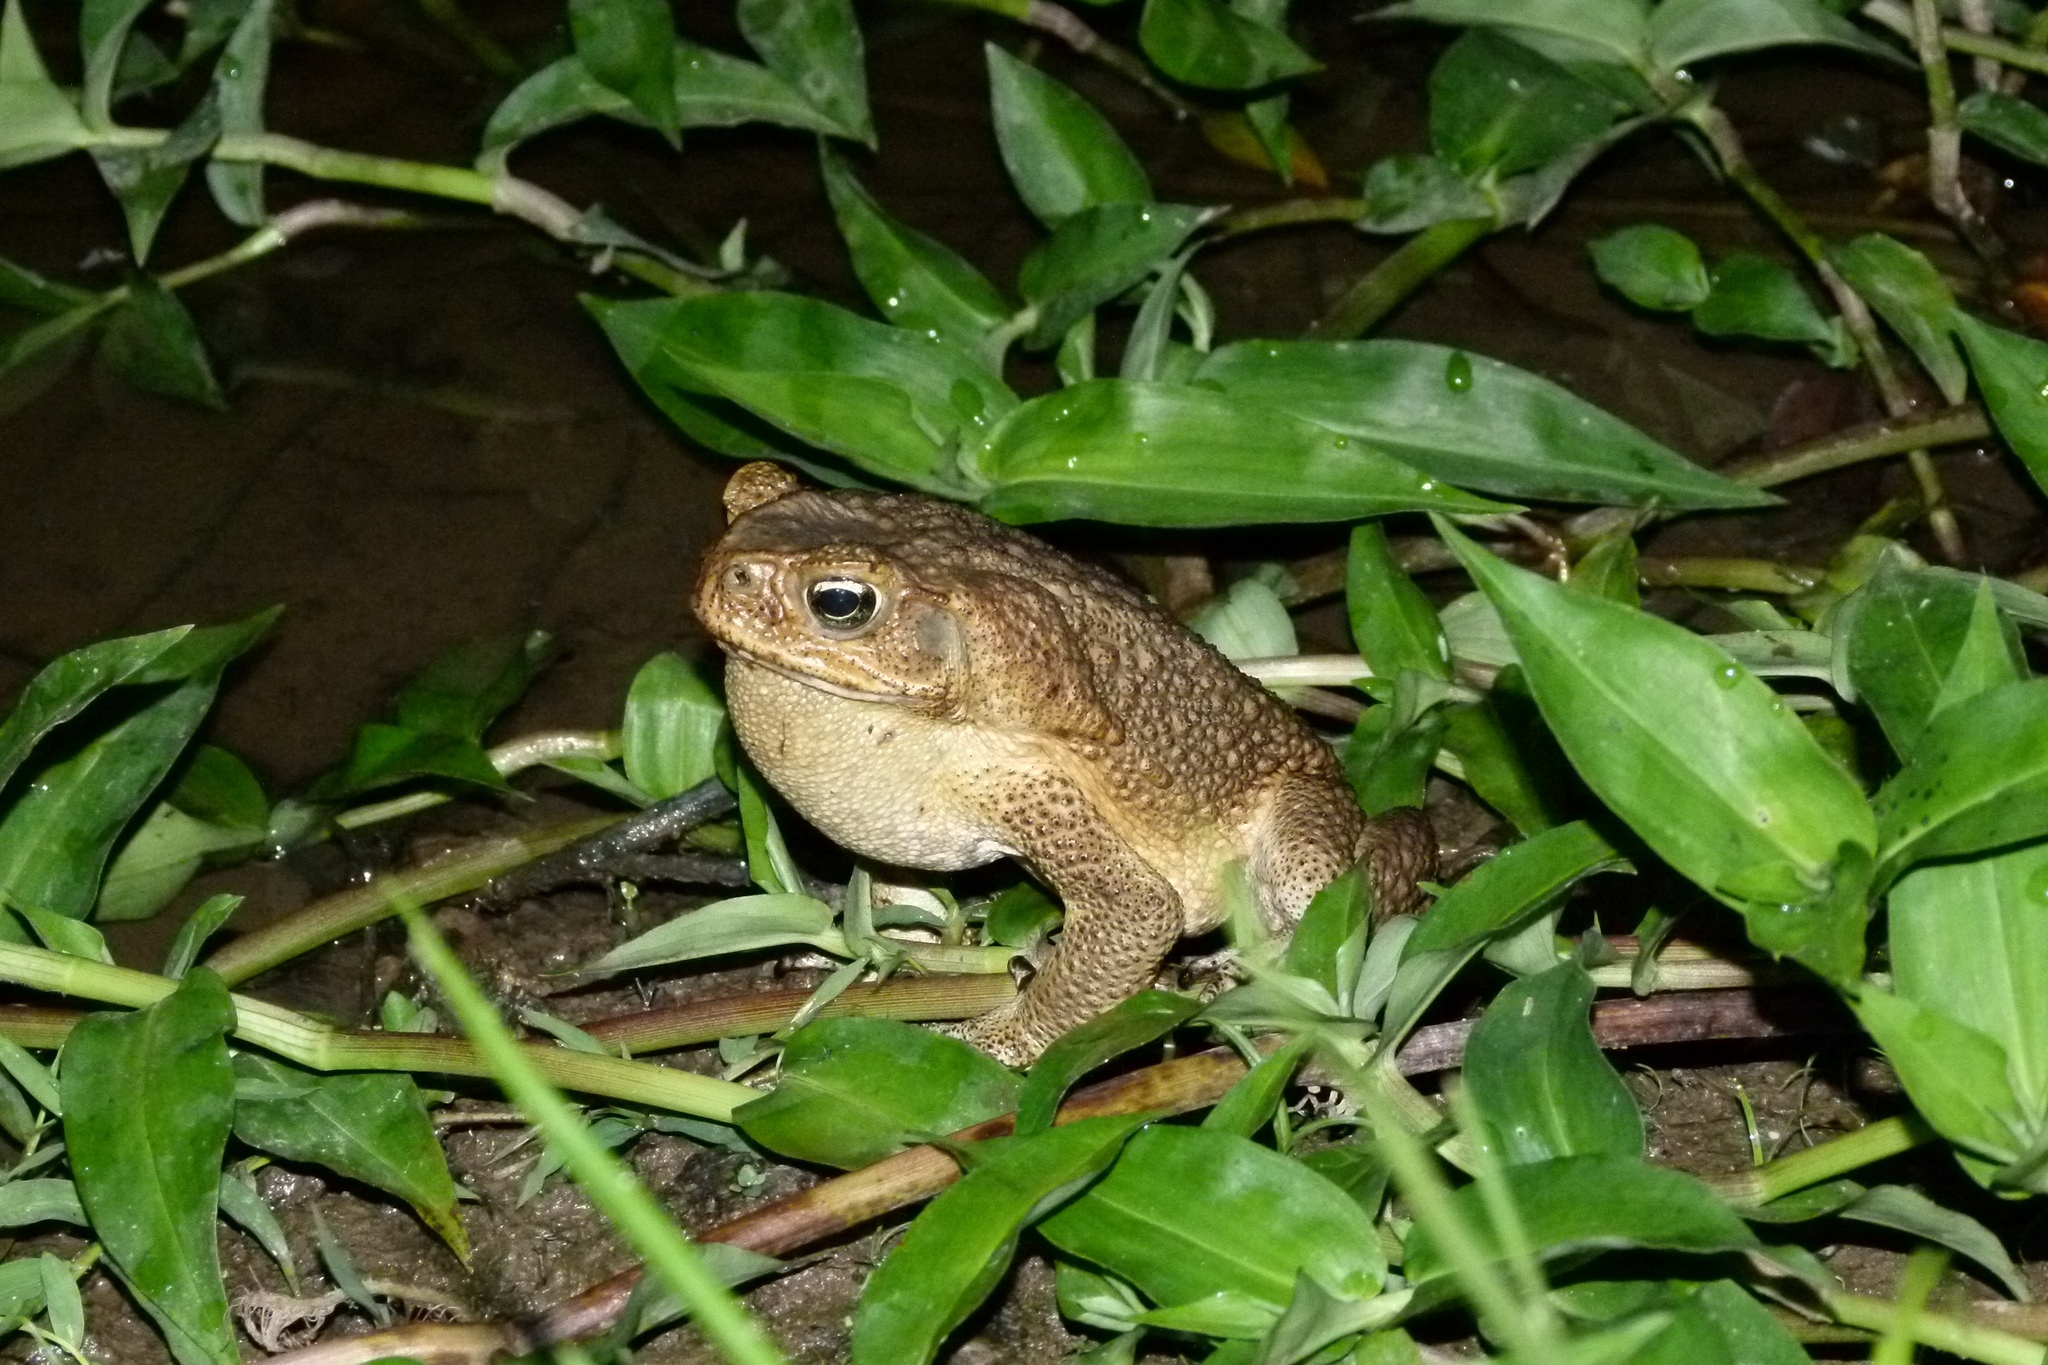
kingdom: Animalia
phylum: Chordata
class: Amphibia
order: Anura
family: Bufonidae
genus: Rhinella
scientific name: Rhinella marina
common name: Cane toad
